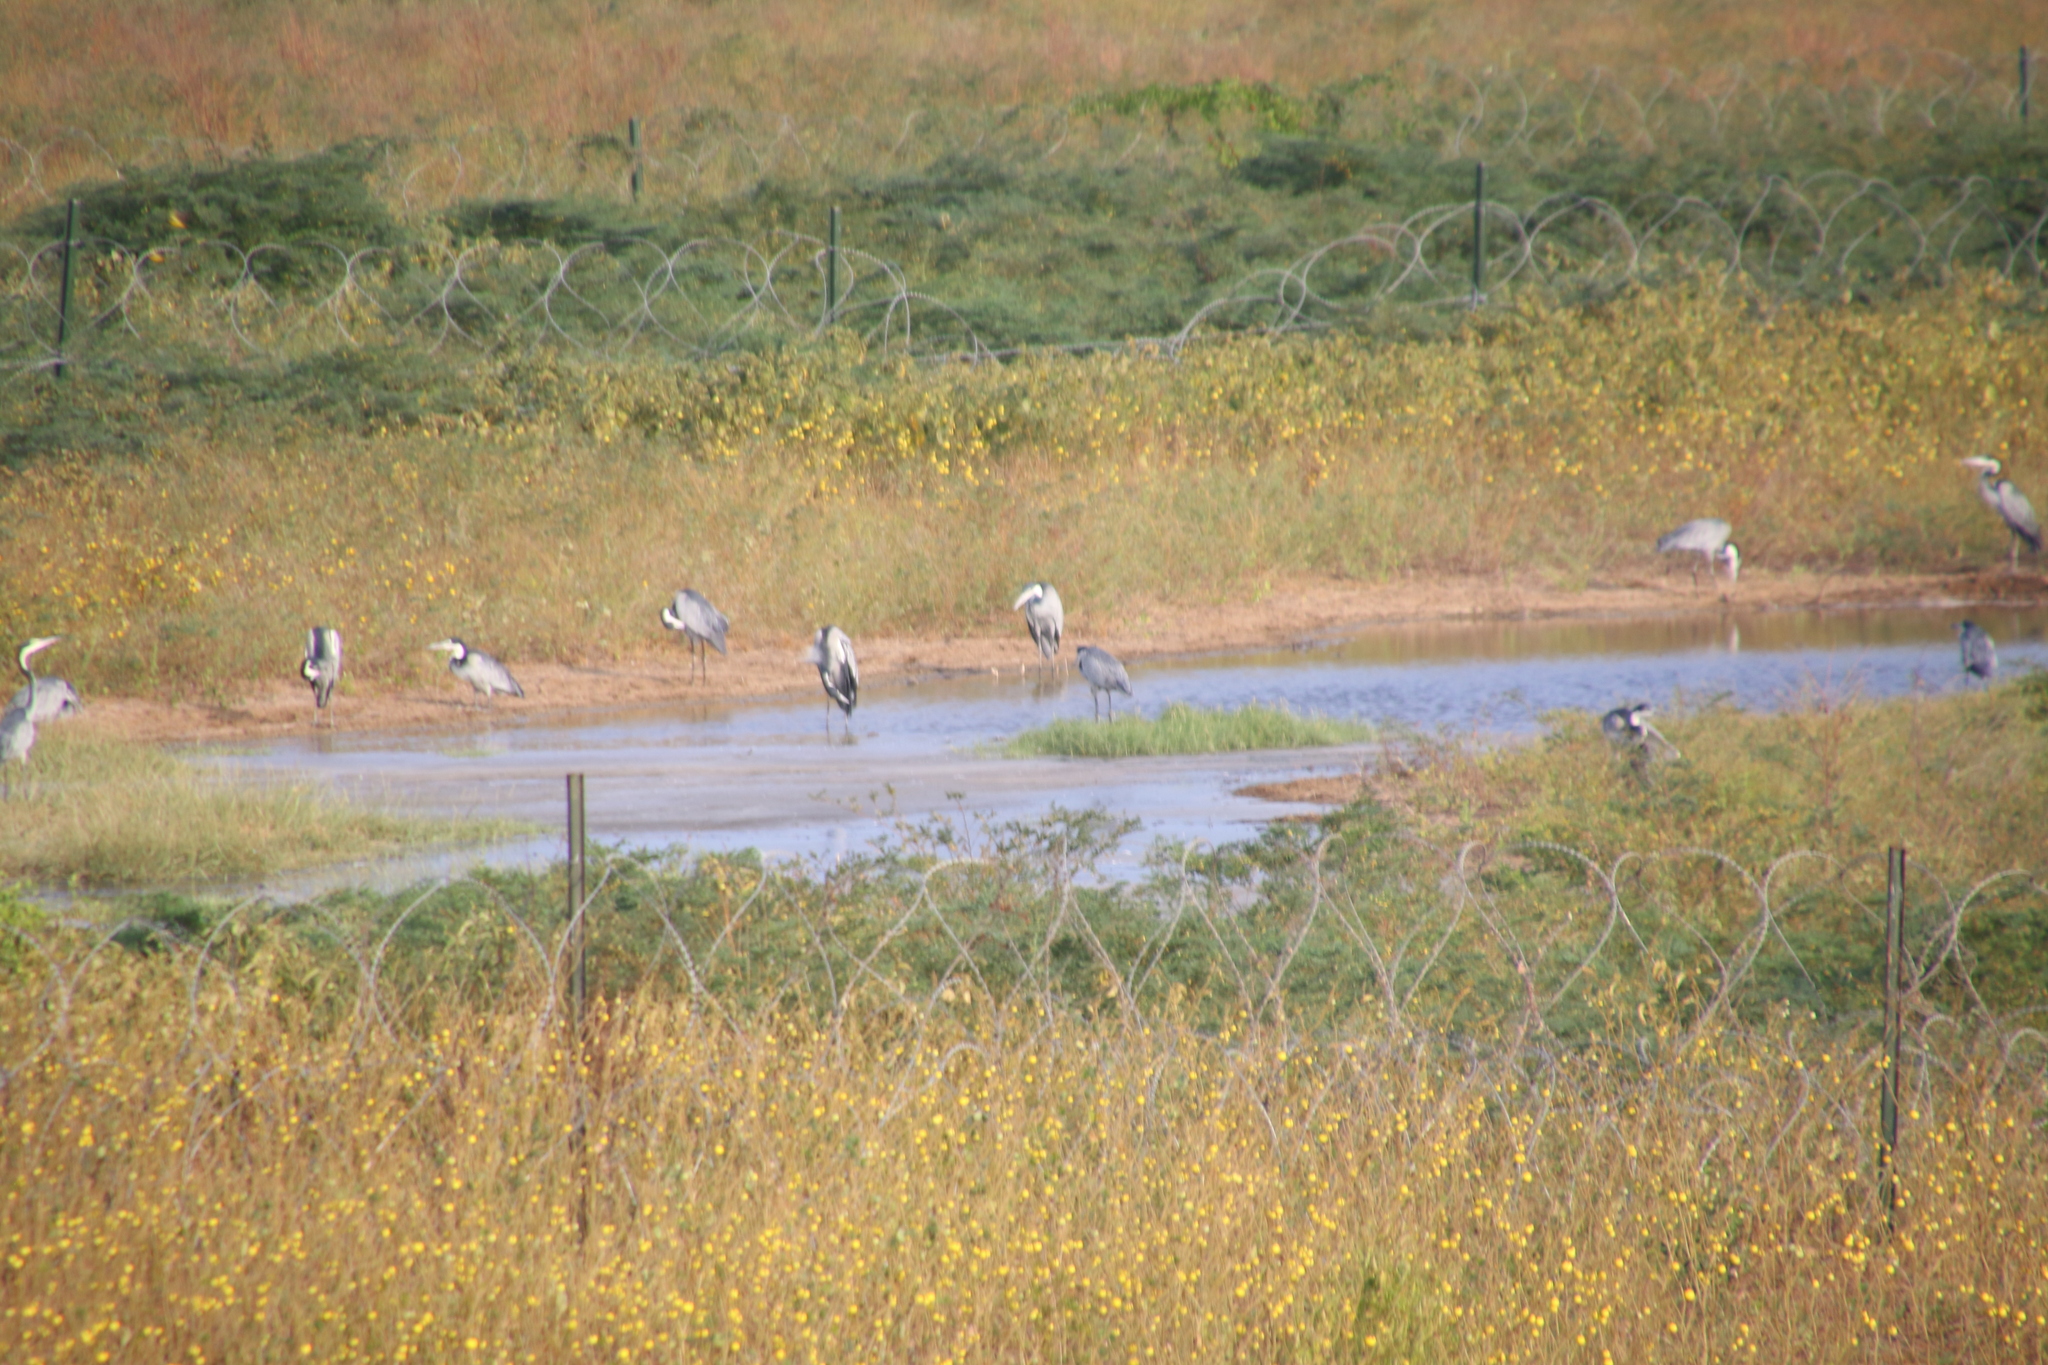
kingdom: Animalia
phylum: Chordata
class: Aves
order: Pelecaniformes
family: Ardeidae
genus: Ardea
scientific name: Ardea melanocephala
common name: Black-headed heron
